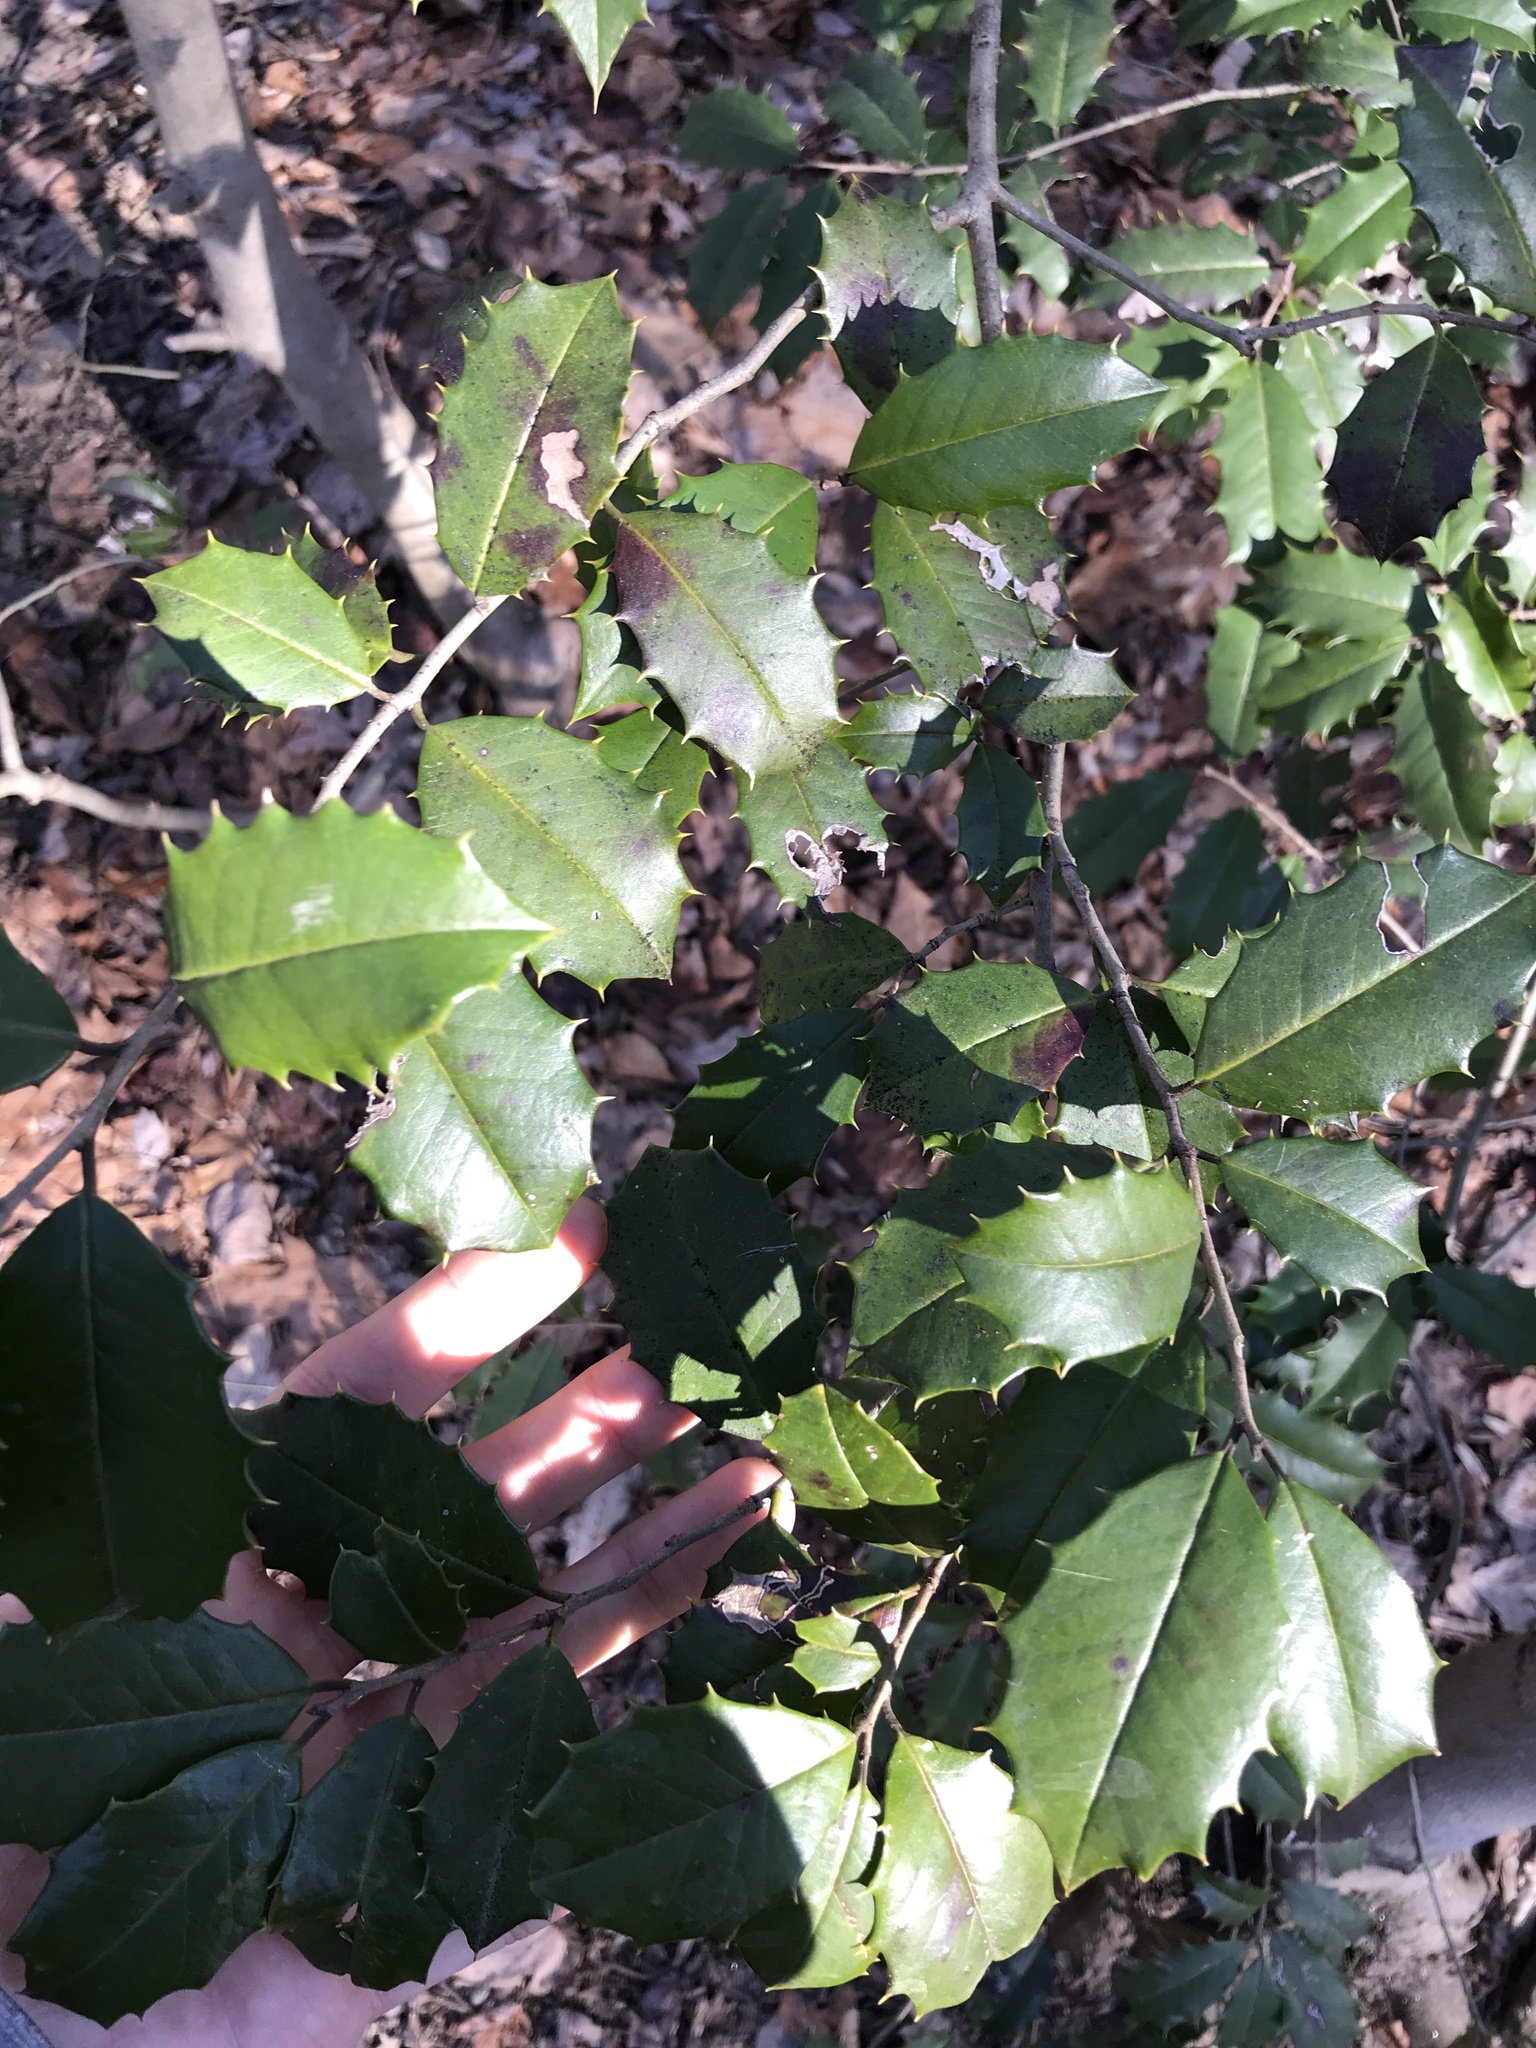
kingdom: Plantae
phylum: Tracheophyta
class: Magnoliopsida
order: Aquifoliales
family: Aquifoliaceae
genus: Ilex
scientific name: Ilex opaca
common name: American holly
